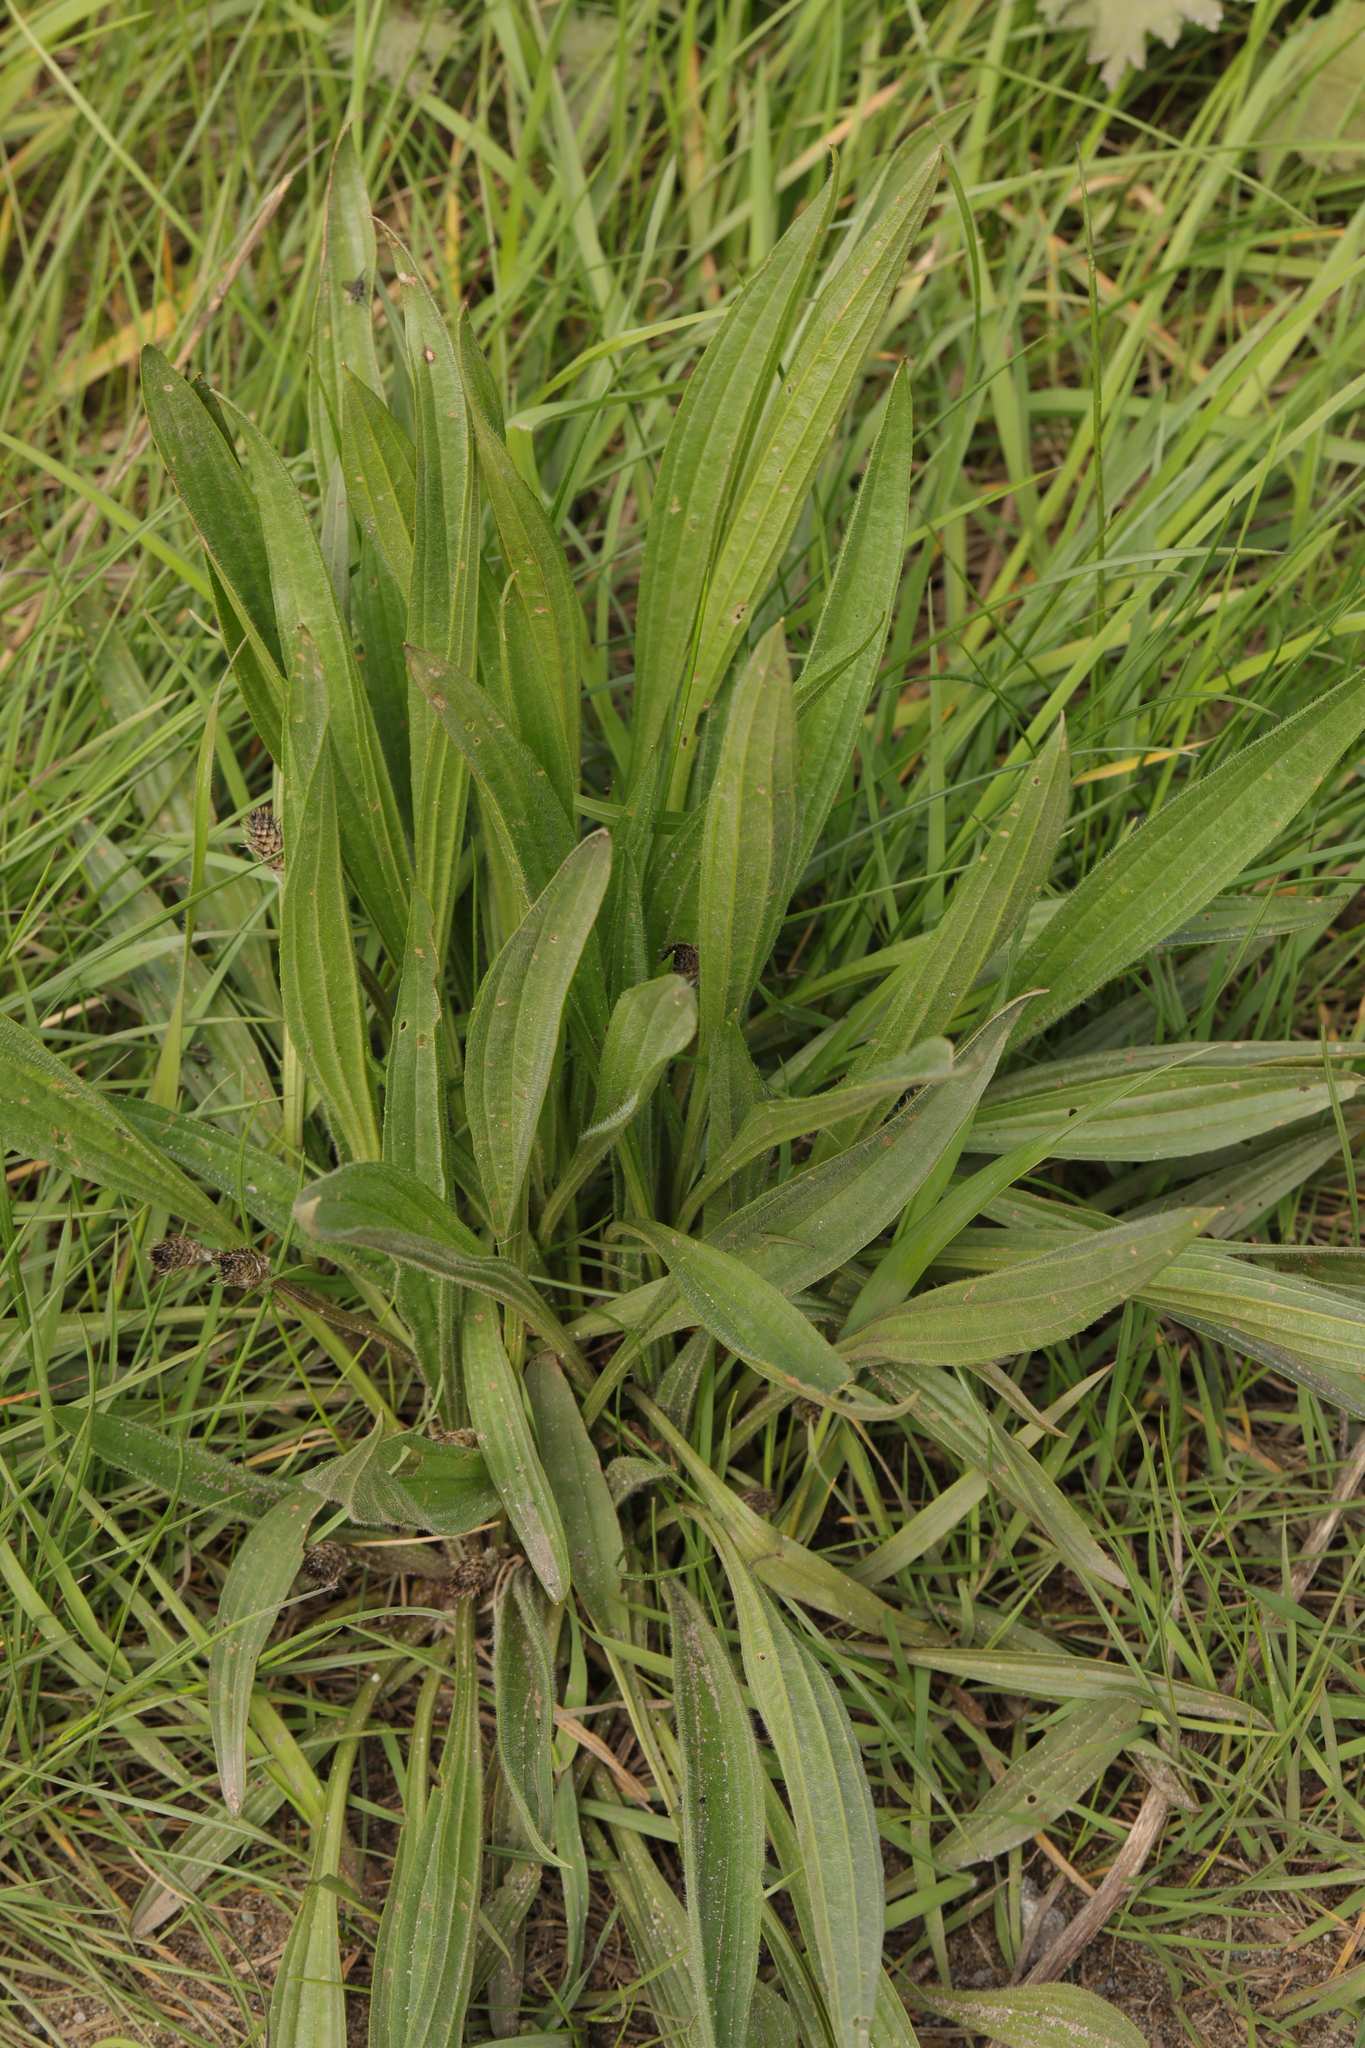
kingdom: Plantae
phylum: Tracheophyta
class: Magnoliopsida
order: Lamiales
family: Plantaginaceae
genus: Plantago
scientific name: Plantago lanceolata
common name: Ribwort plantain
